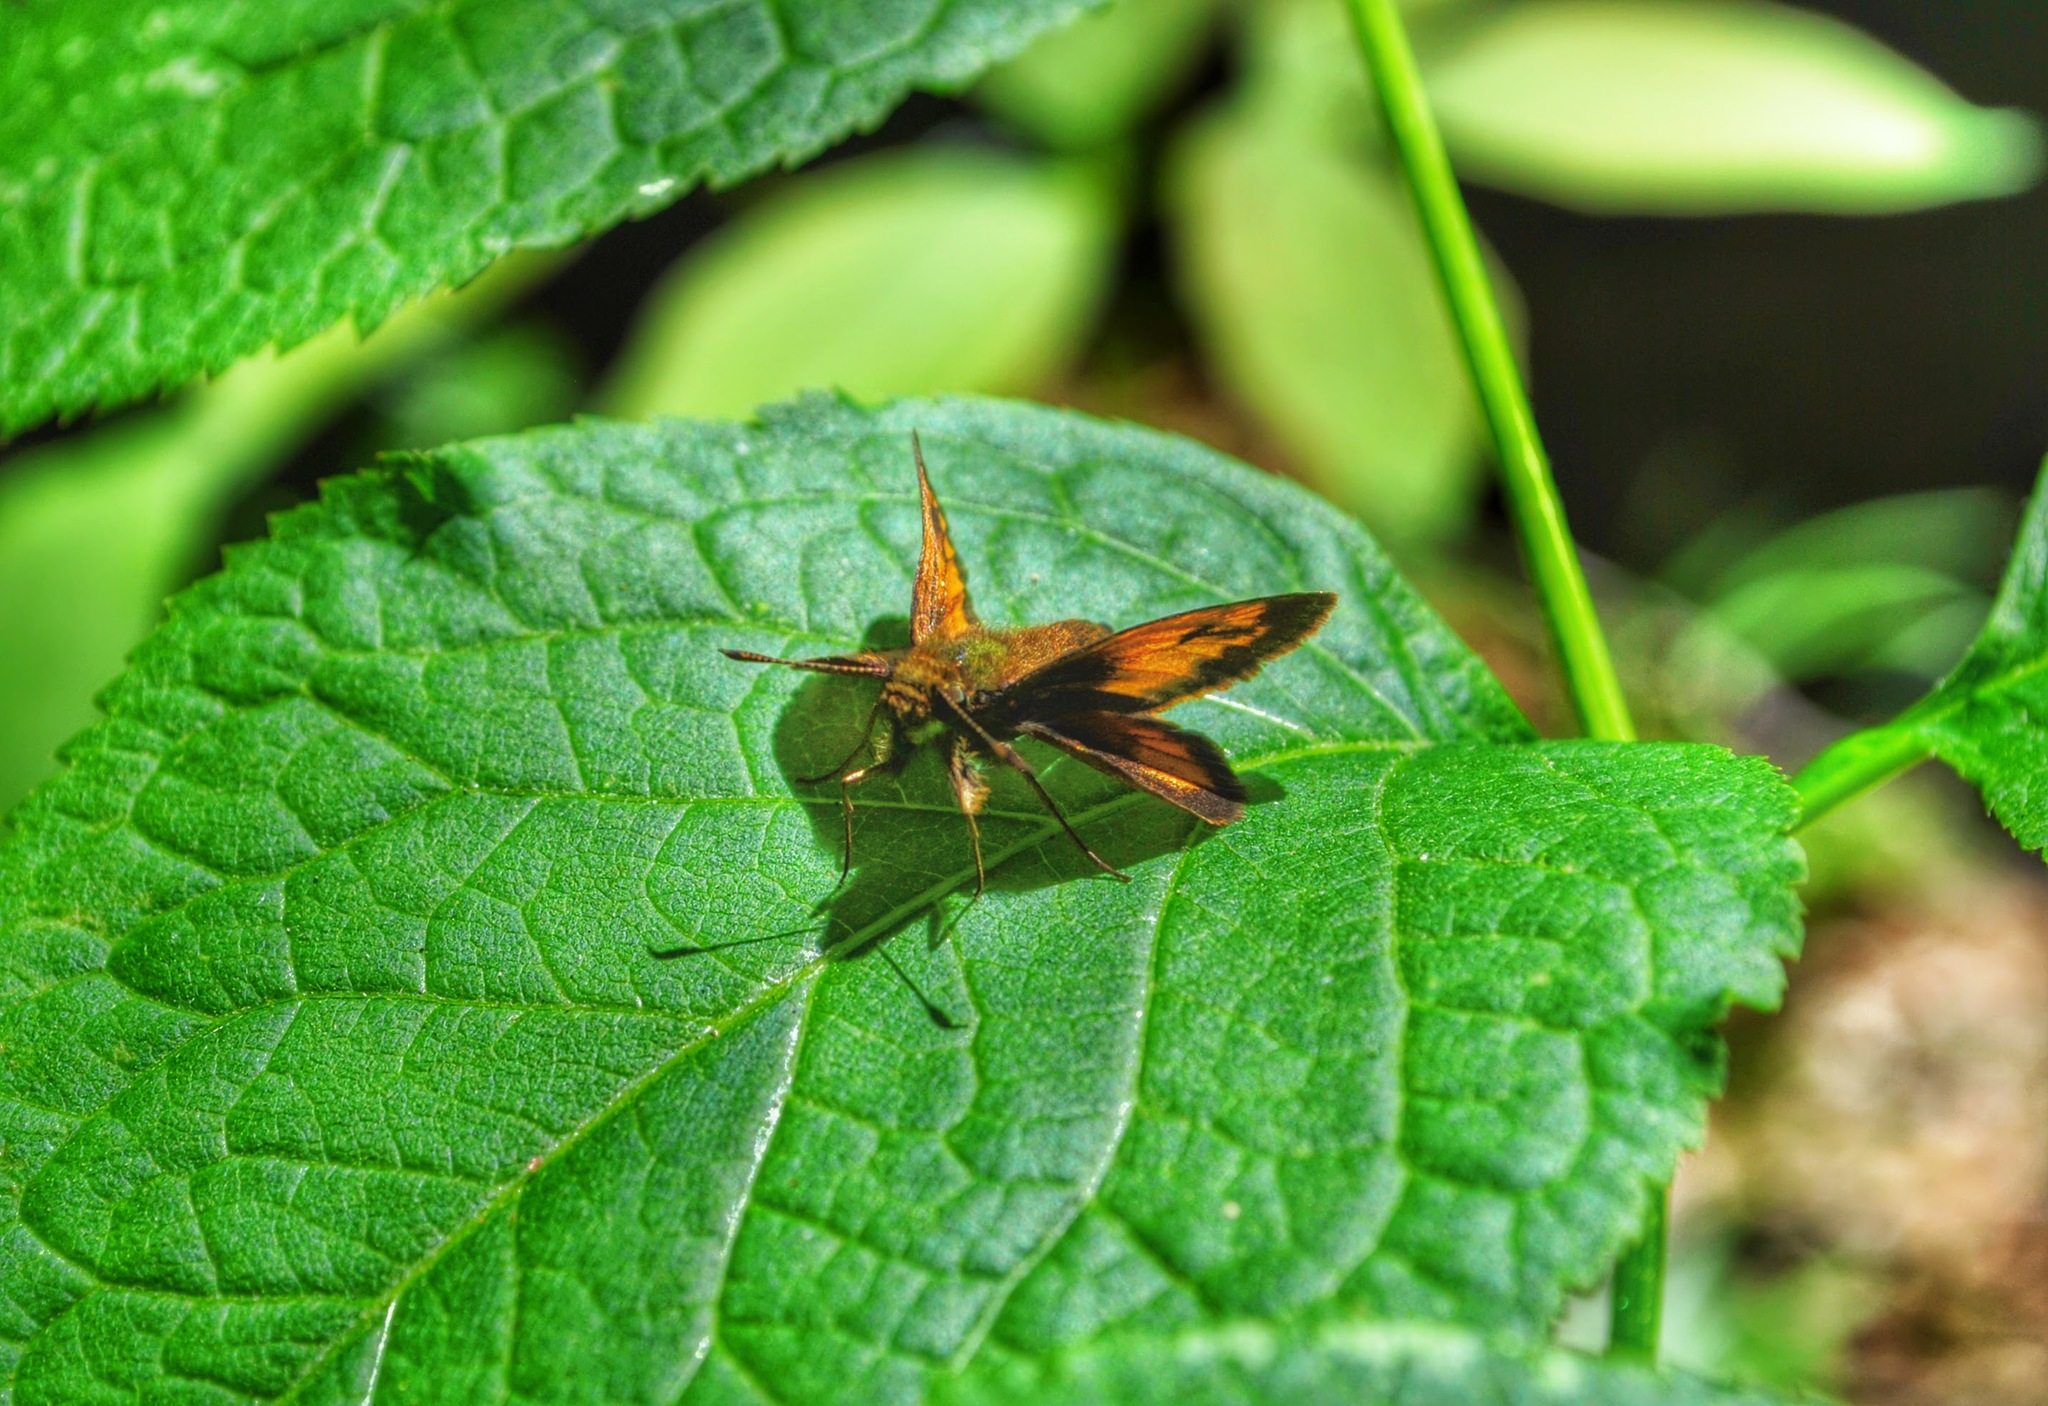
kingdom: Animalia
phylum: Arthropoda
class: Insecta
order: Lepidoptera
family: Hesperiidae
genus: Lon
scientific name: Lon hobomok
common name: Hobomok skipper
